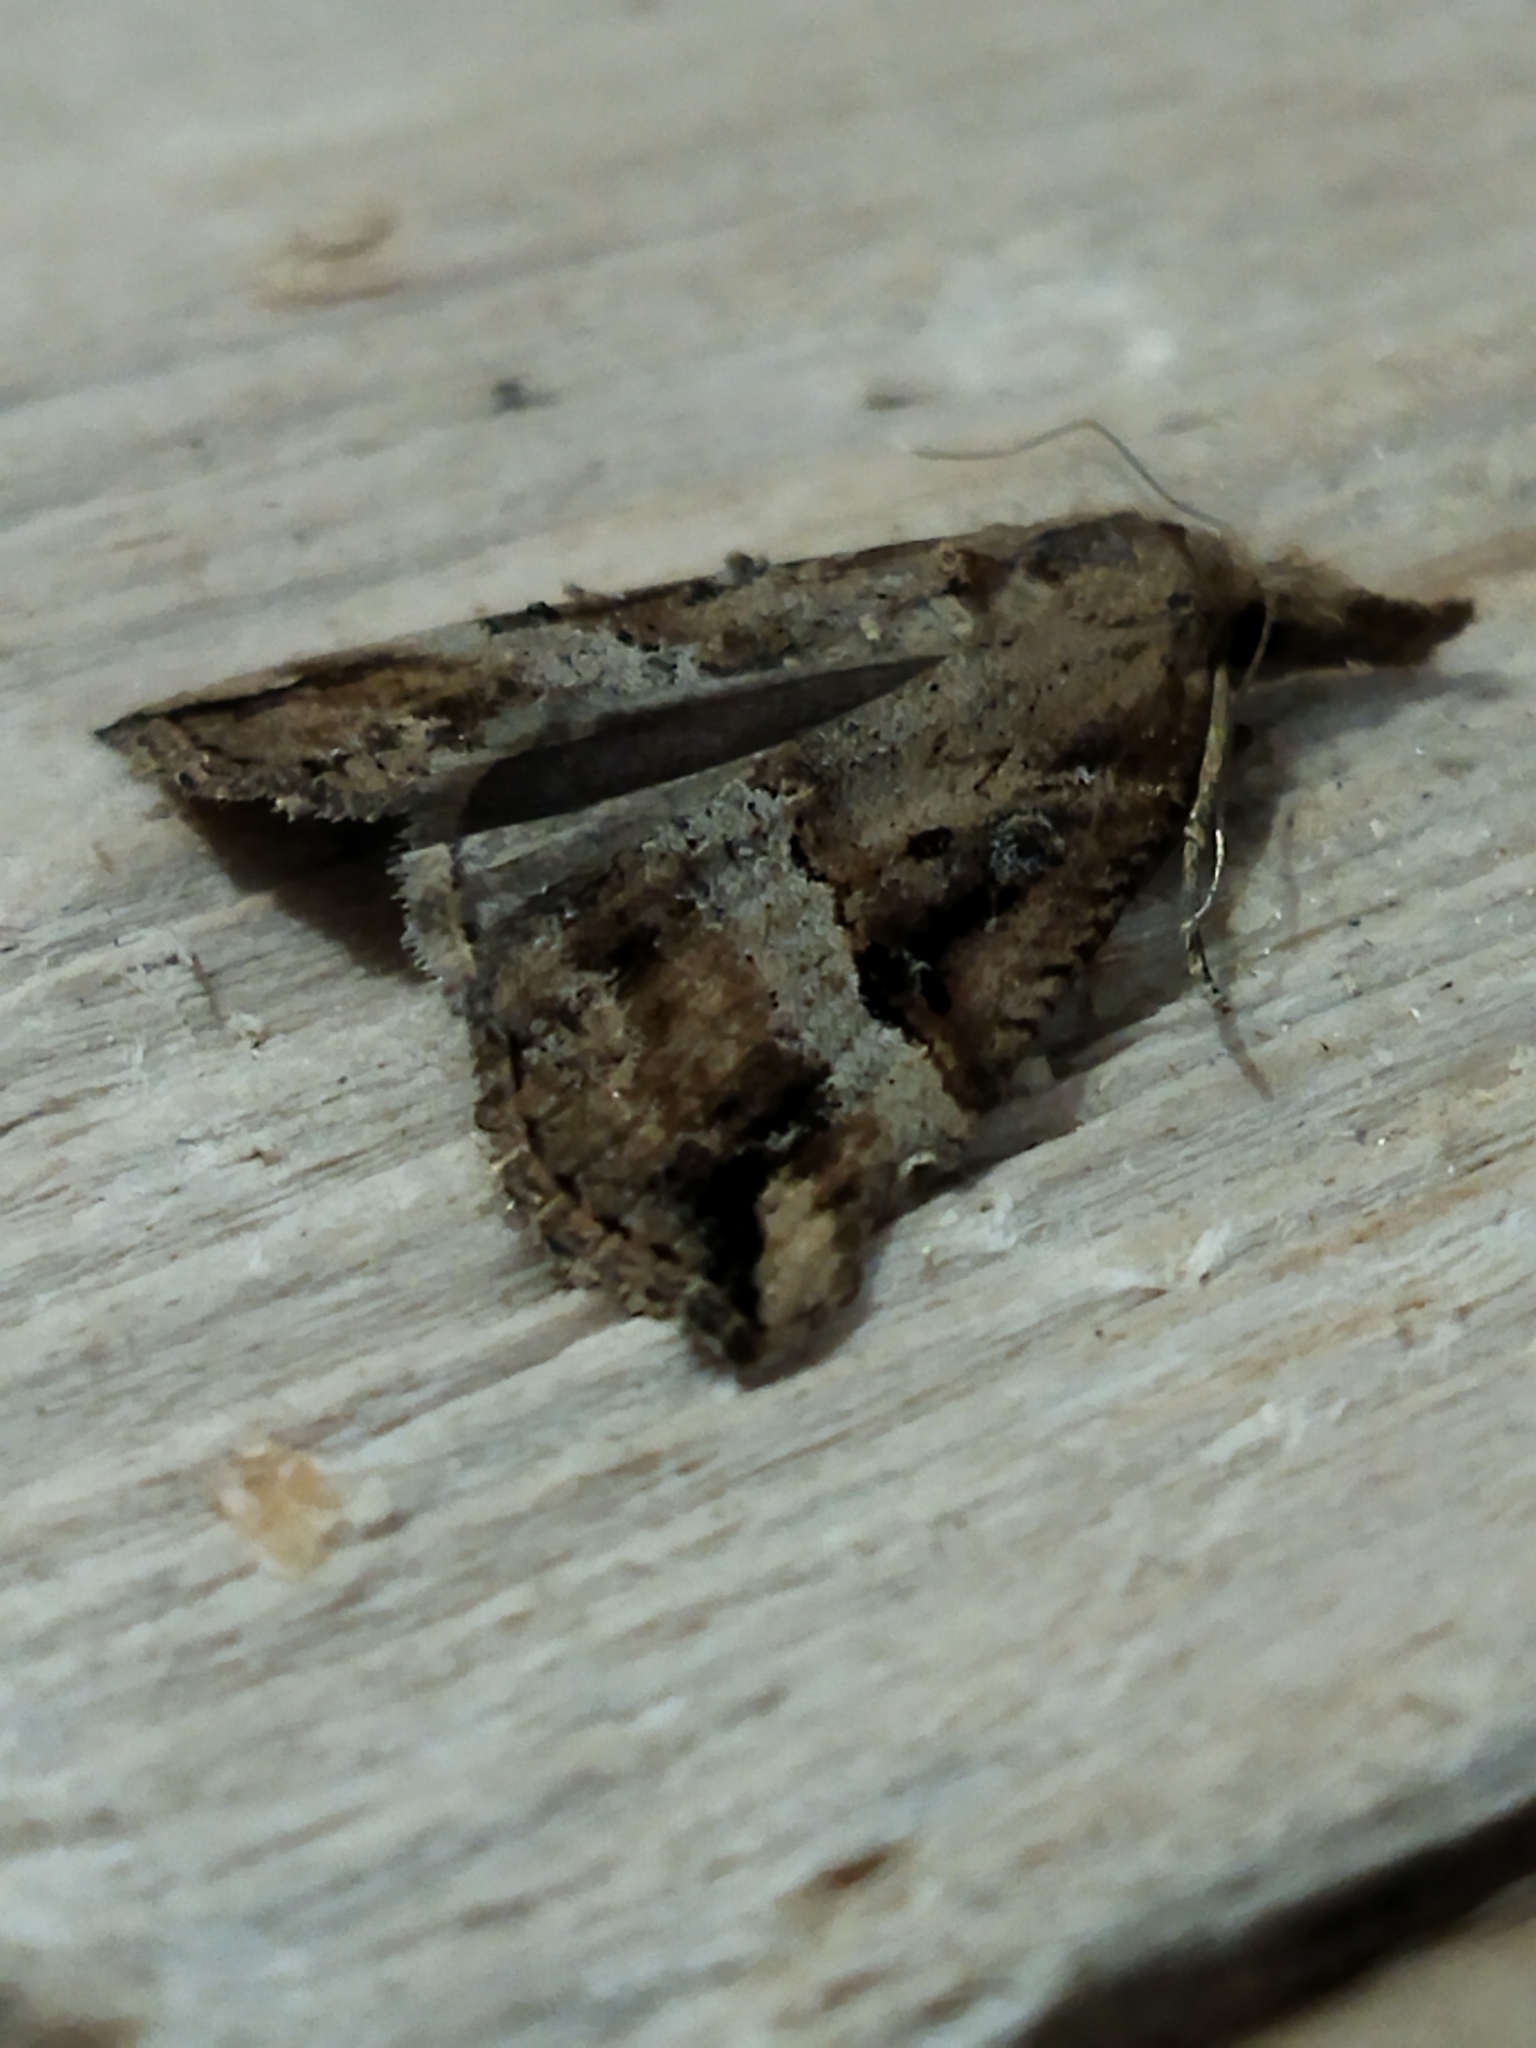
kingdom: Animalia
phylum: Arthropoda
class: Insecta
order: Lepidoptera
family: Erebidae
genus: Hypena
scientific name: Hypena rostralis
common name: Buttoned snout
